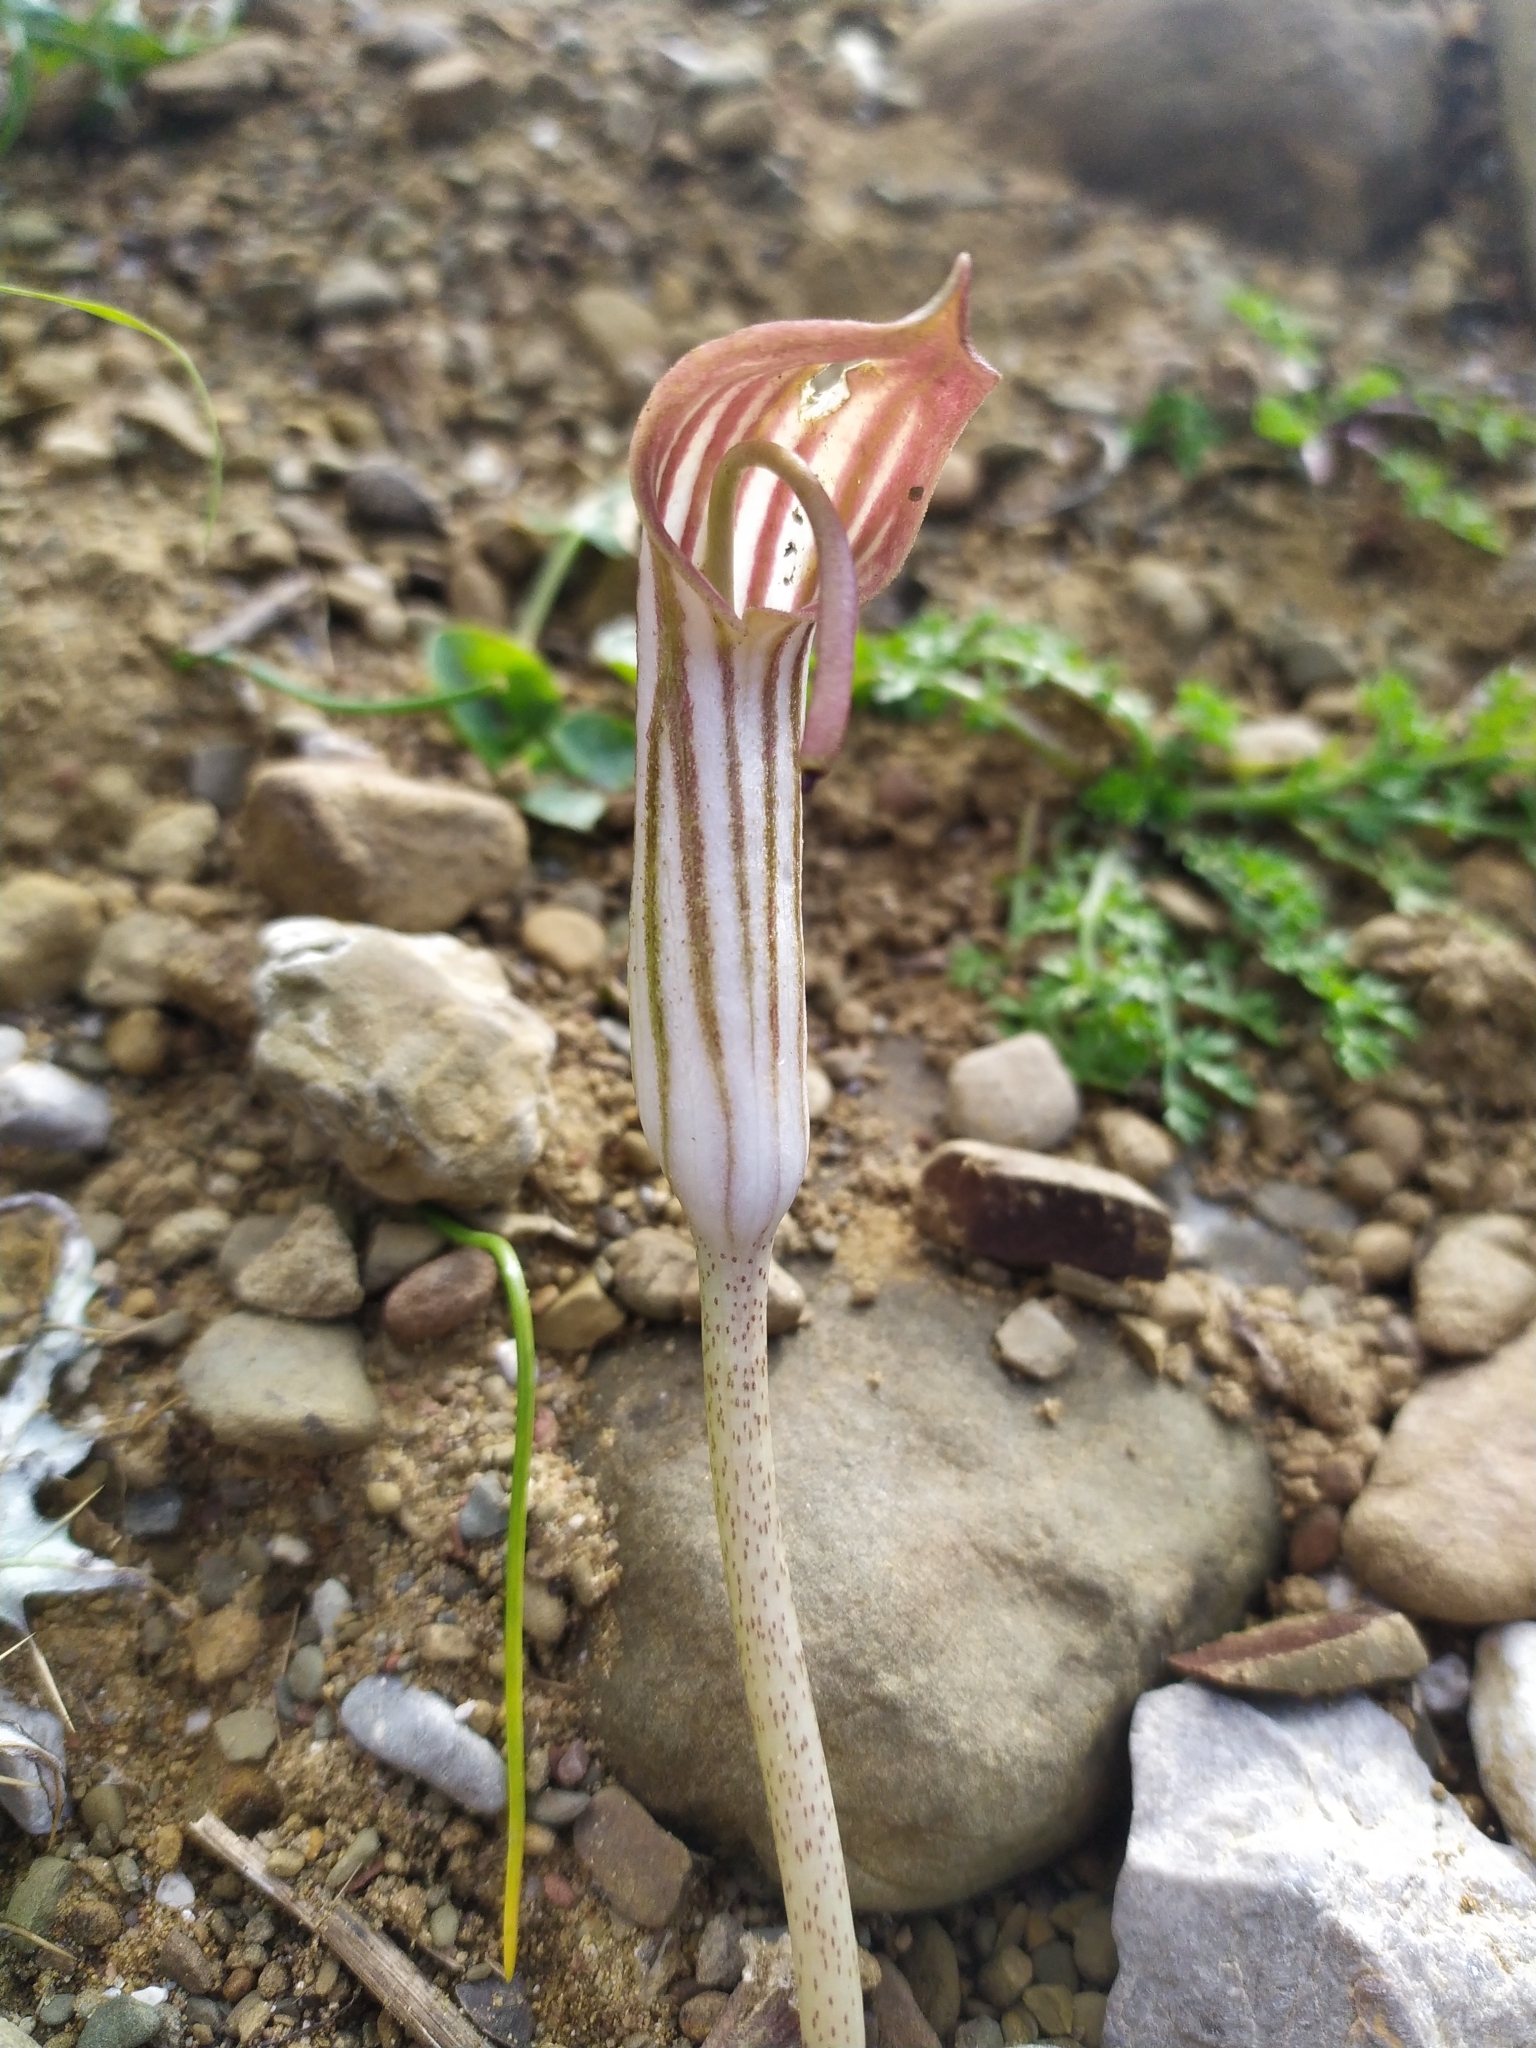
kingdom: Plantae
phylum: Tracheophyta
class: Liliopsida
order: Alismatales
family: Araceae
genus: Arisarum
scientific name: Arisarum vulgare
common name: Common arisarum
